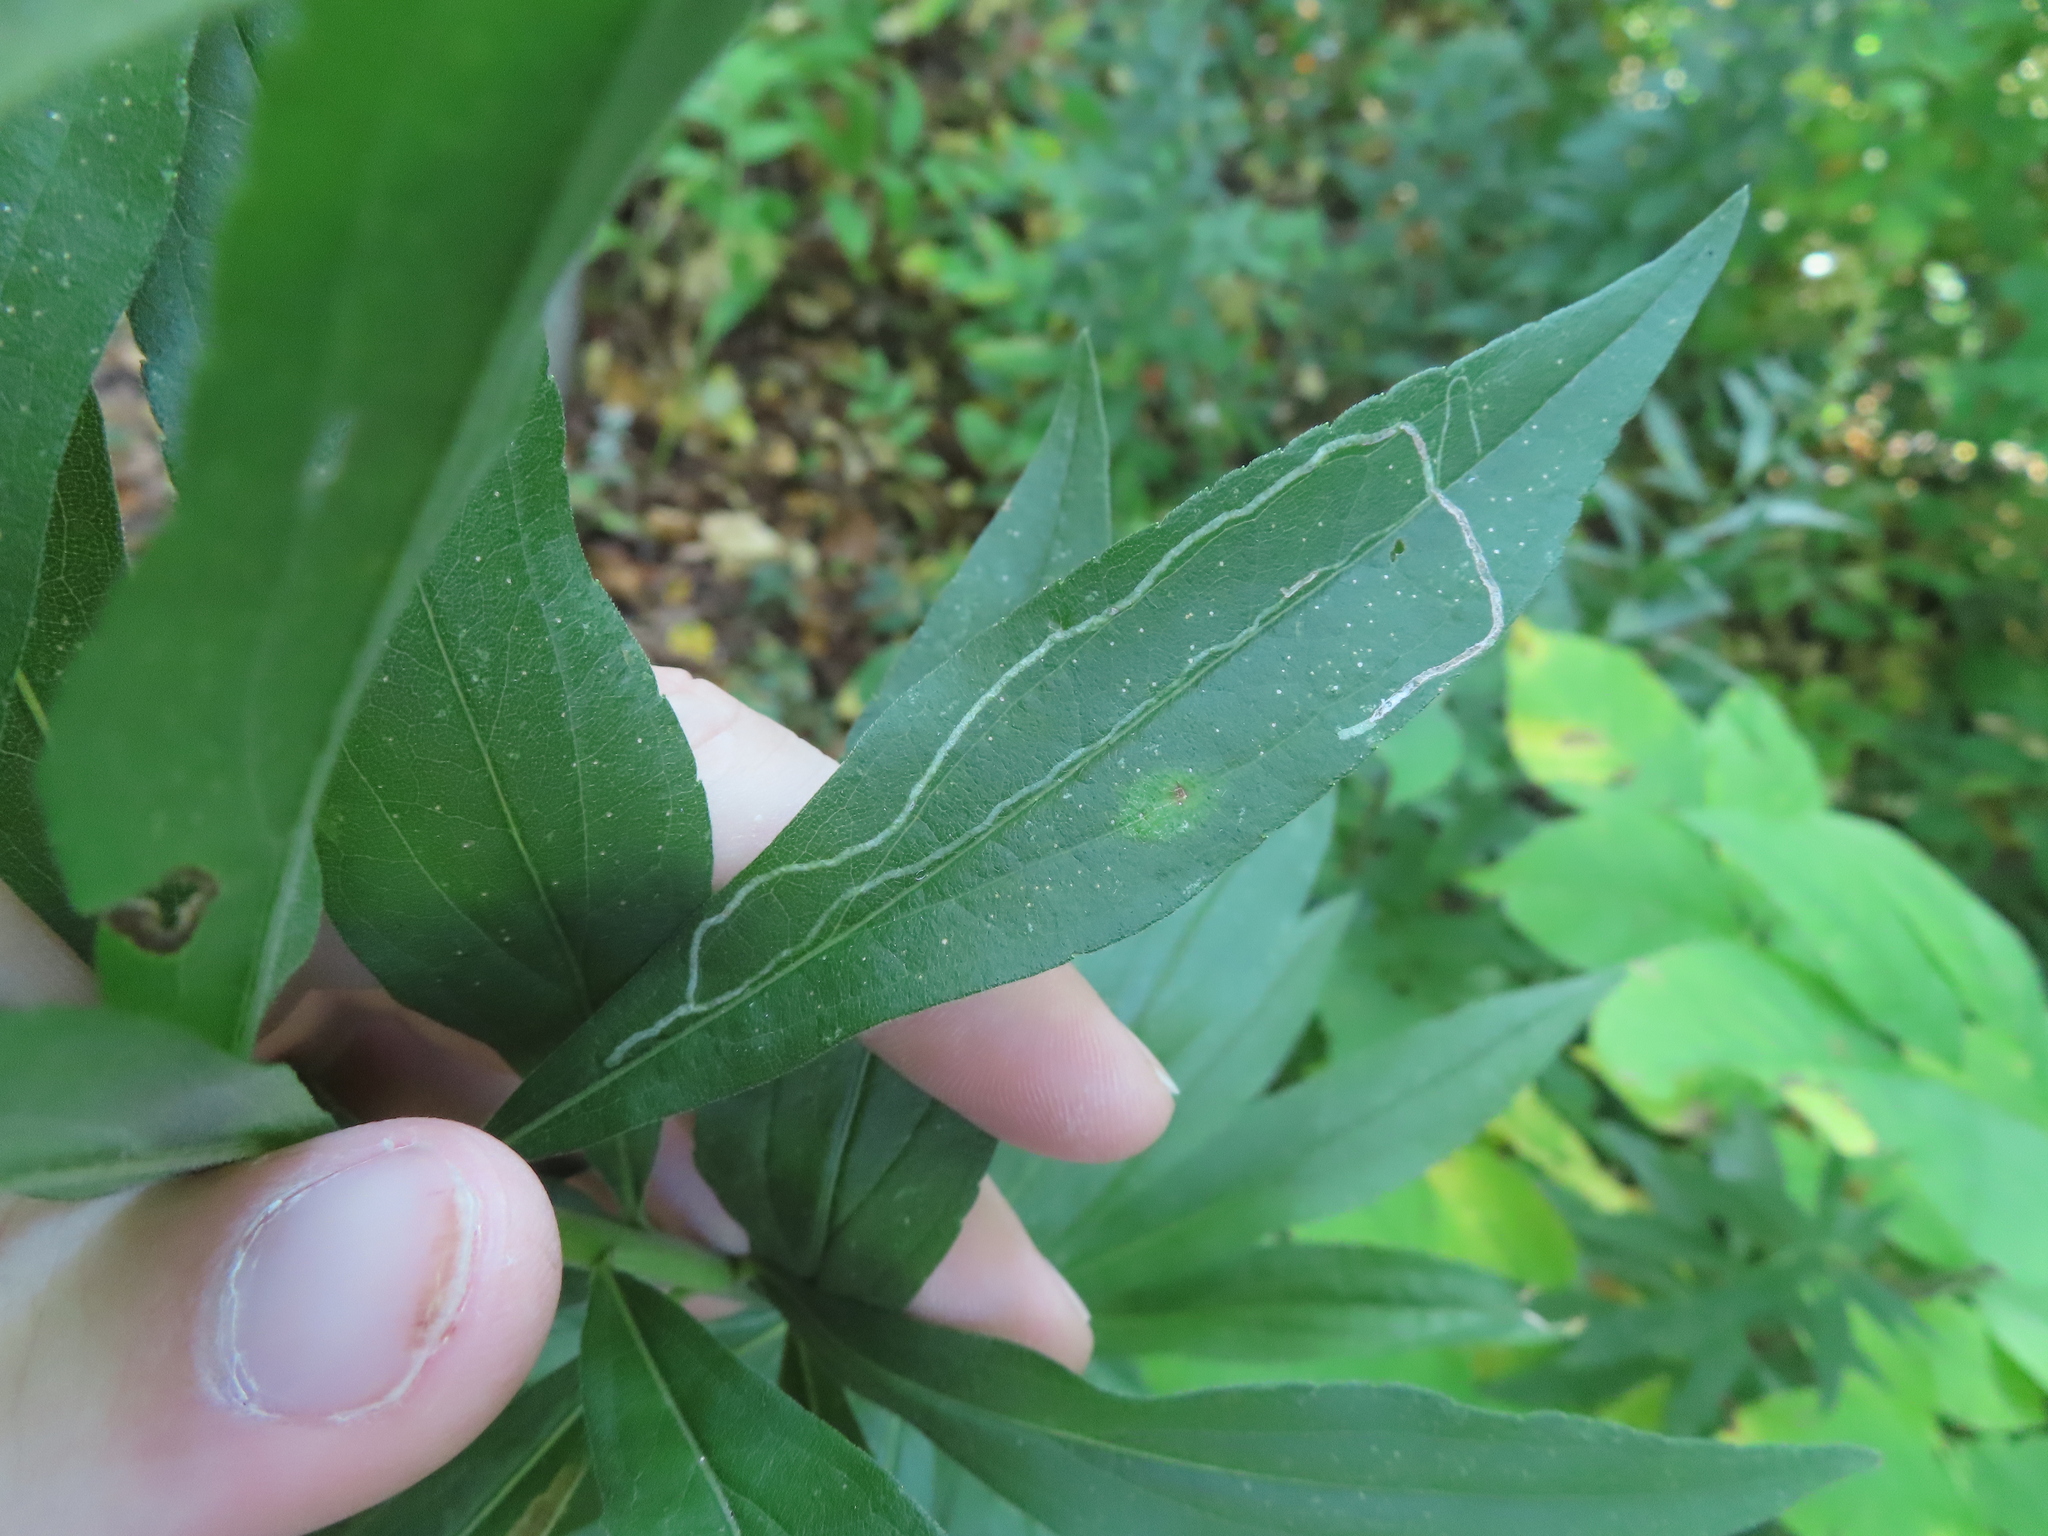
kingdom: Animalia
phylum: Arthropoda
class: Insecta
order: Diptera
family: Agromyzidae
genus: Ophiomyia
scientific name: Ophiomyia maura
